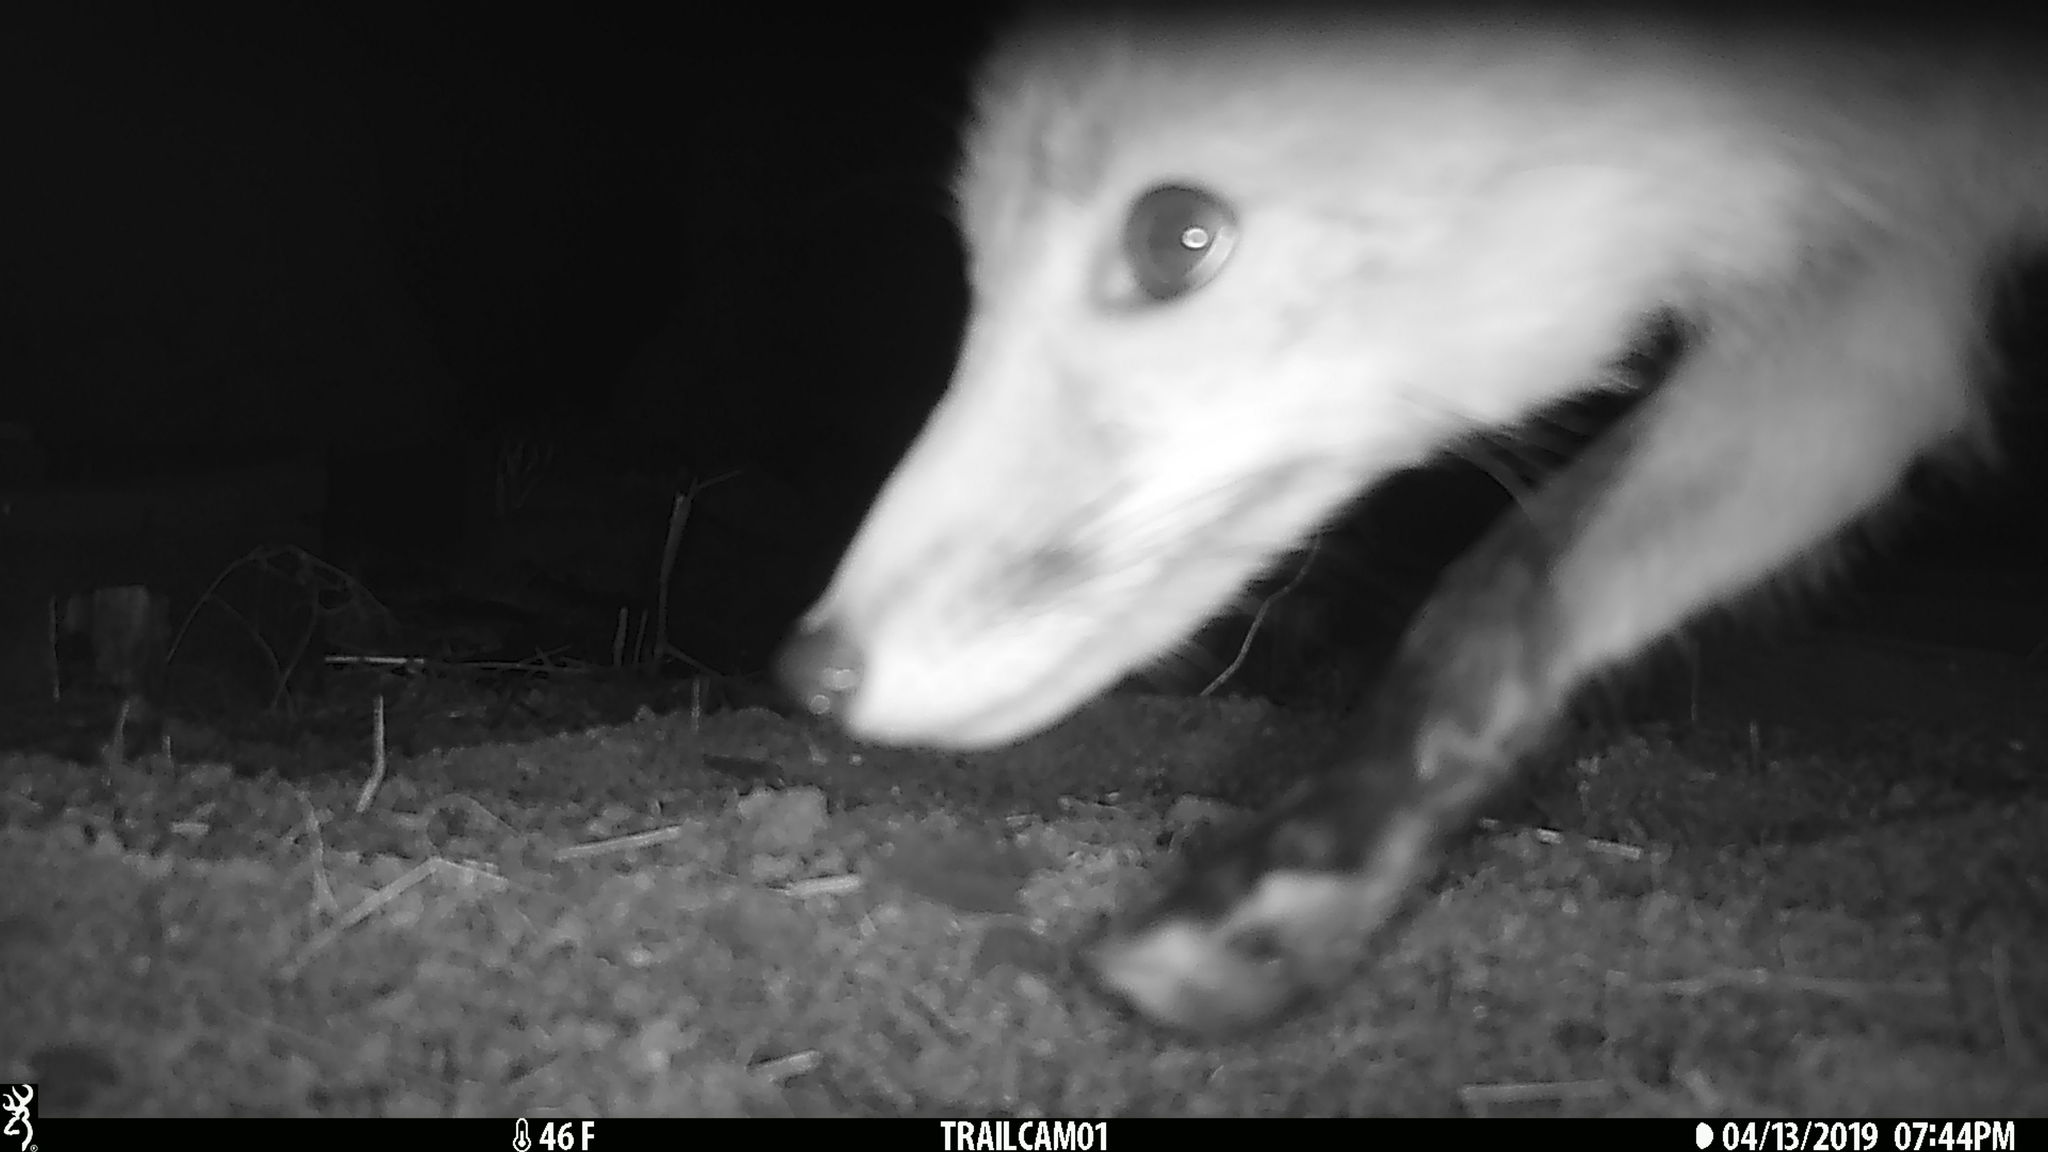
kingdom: Animalia
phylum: Chordata
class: Mammalia
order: Carnivora
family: Canidae
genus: Vulpes
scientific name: Vulpes vulpes
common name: Red fox
